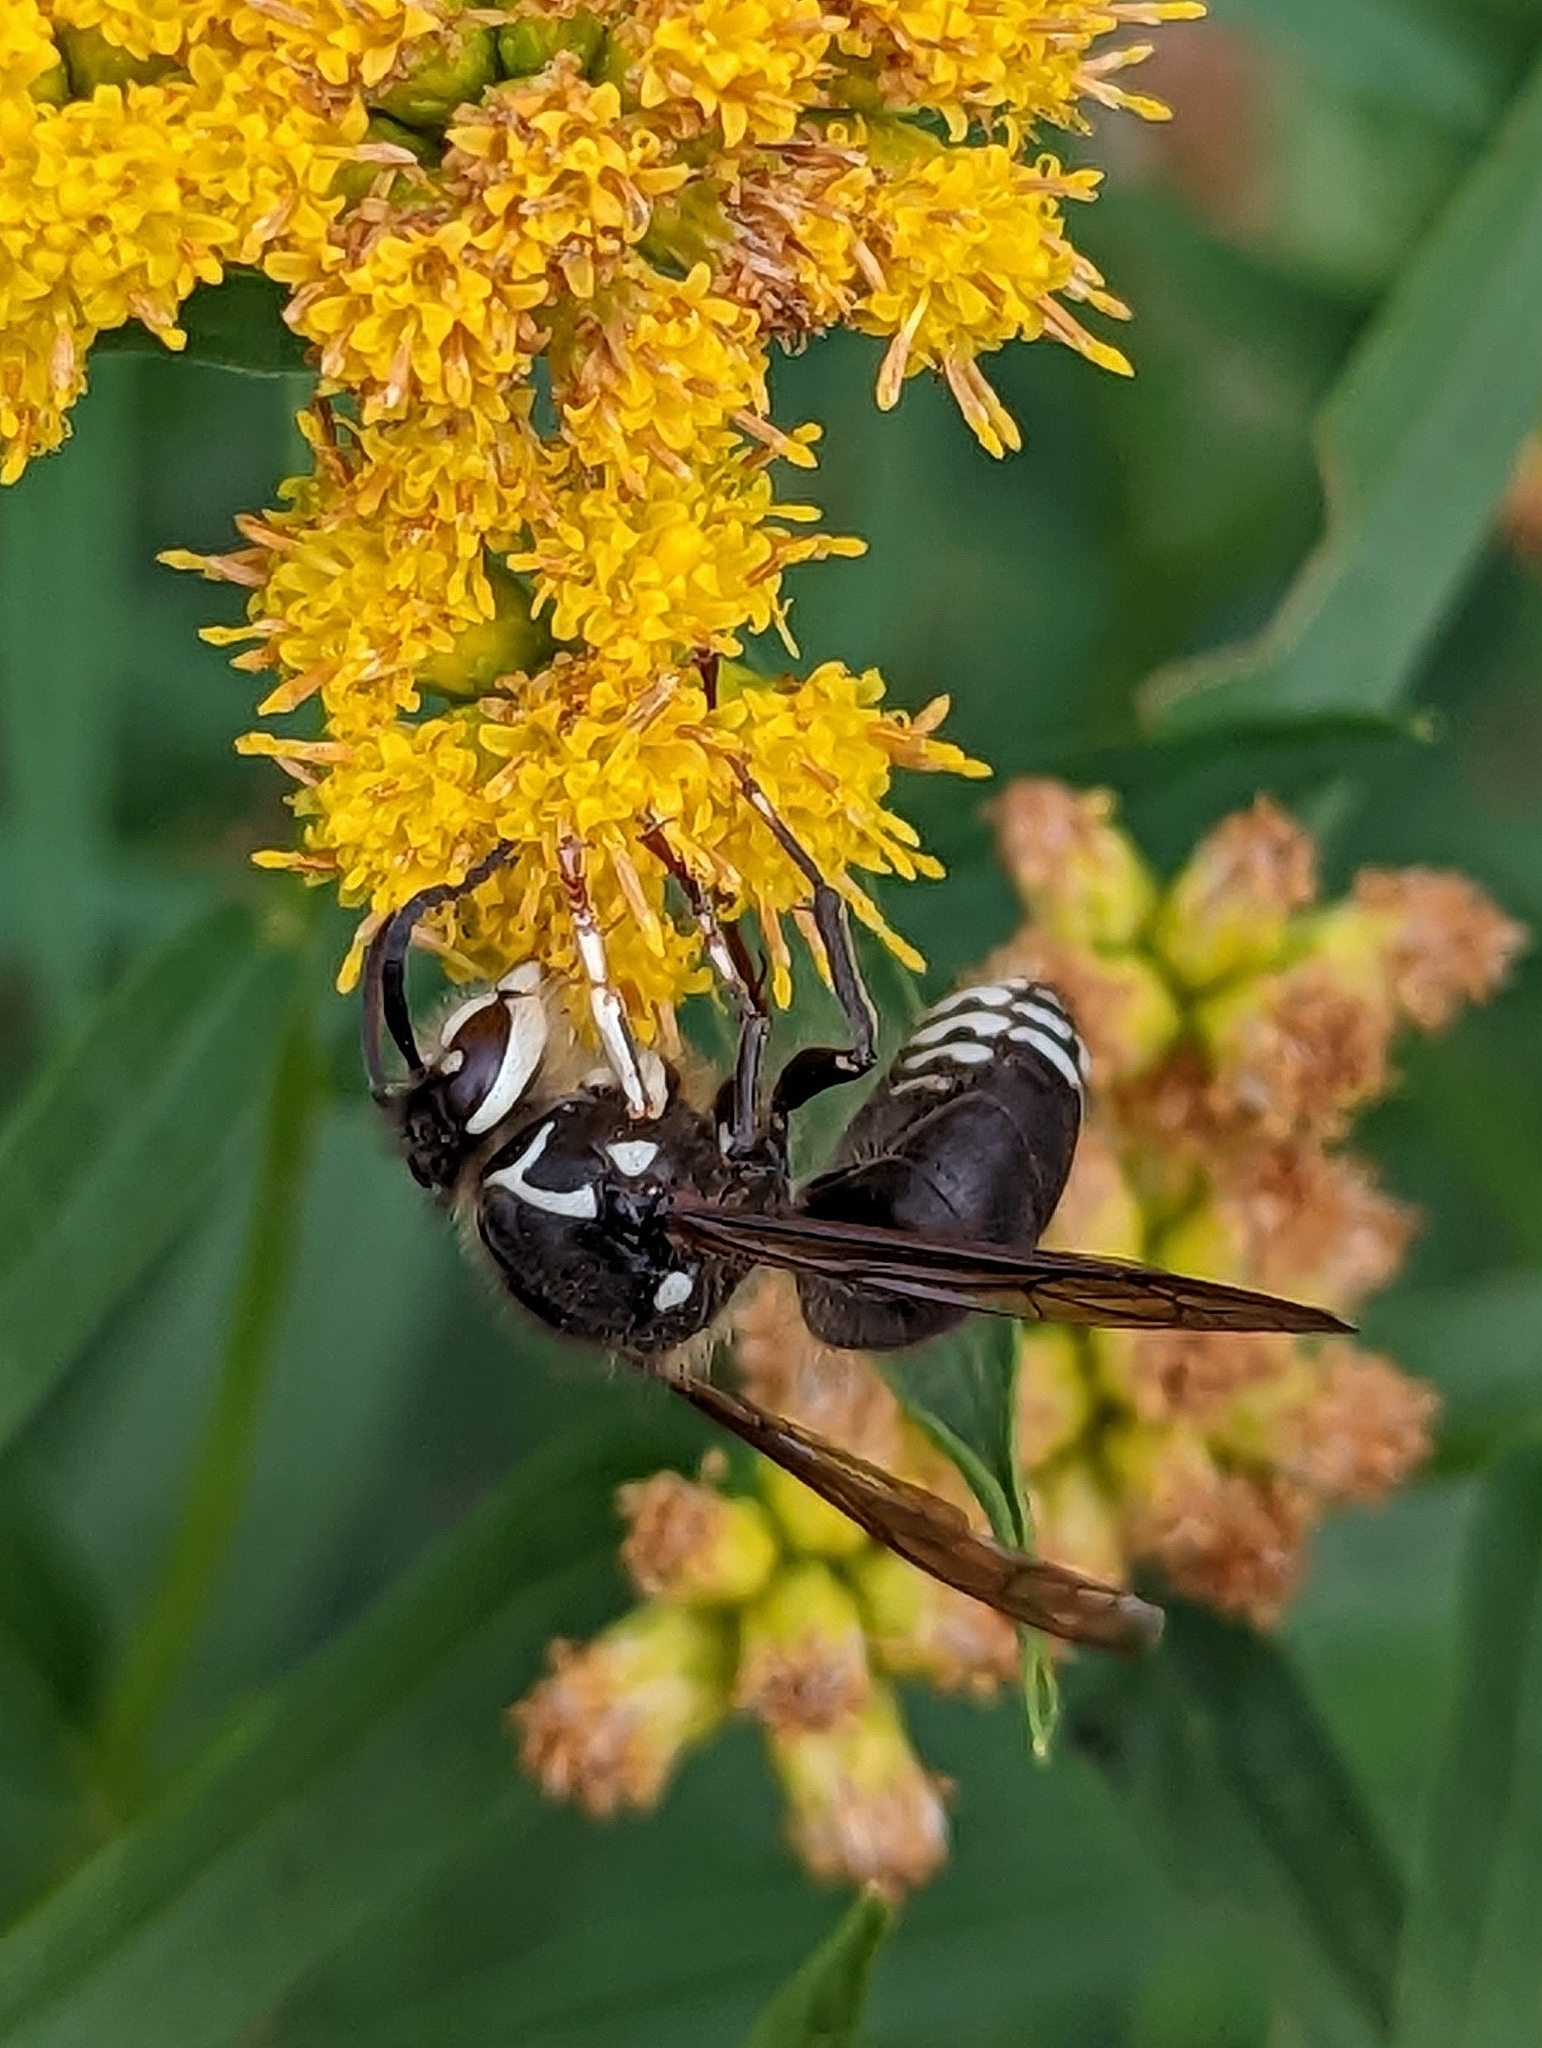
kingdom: Animalia
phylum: Arthropoda
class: Insecta
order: Hymenoptera
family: Vespidae
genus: Dolichovespula
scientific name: Dolichovespula maculata
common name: Bald-faced hornet
